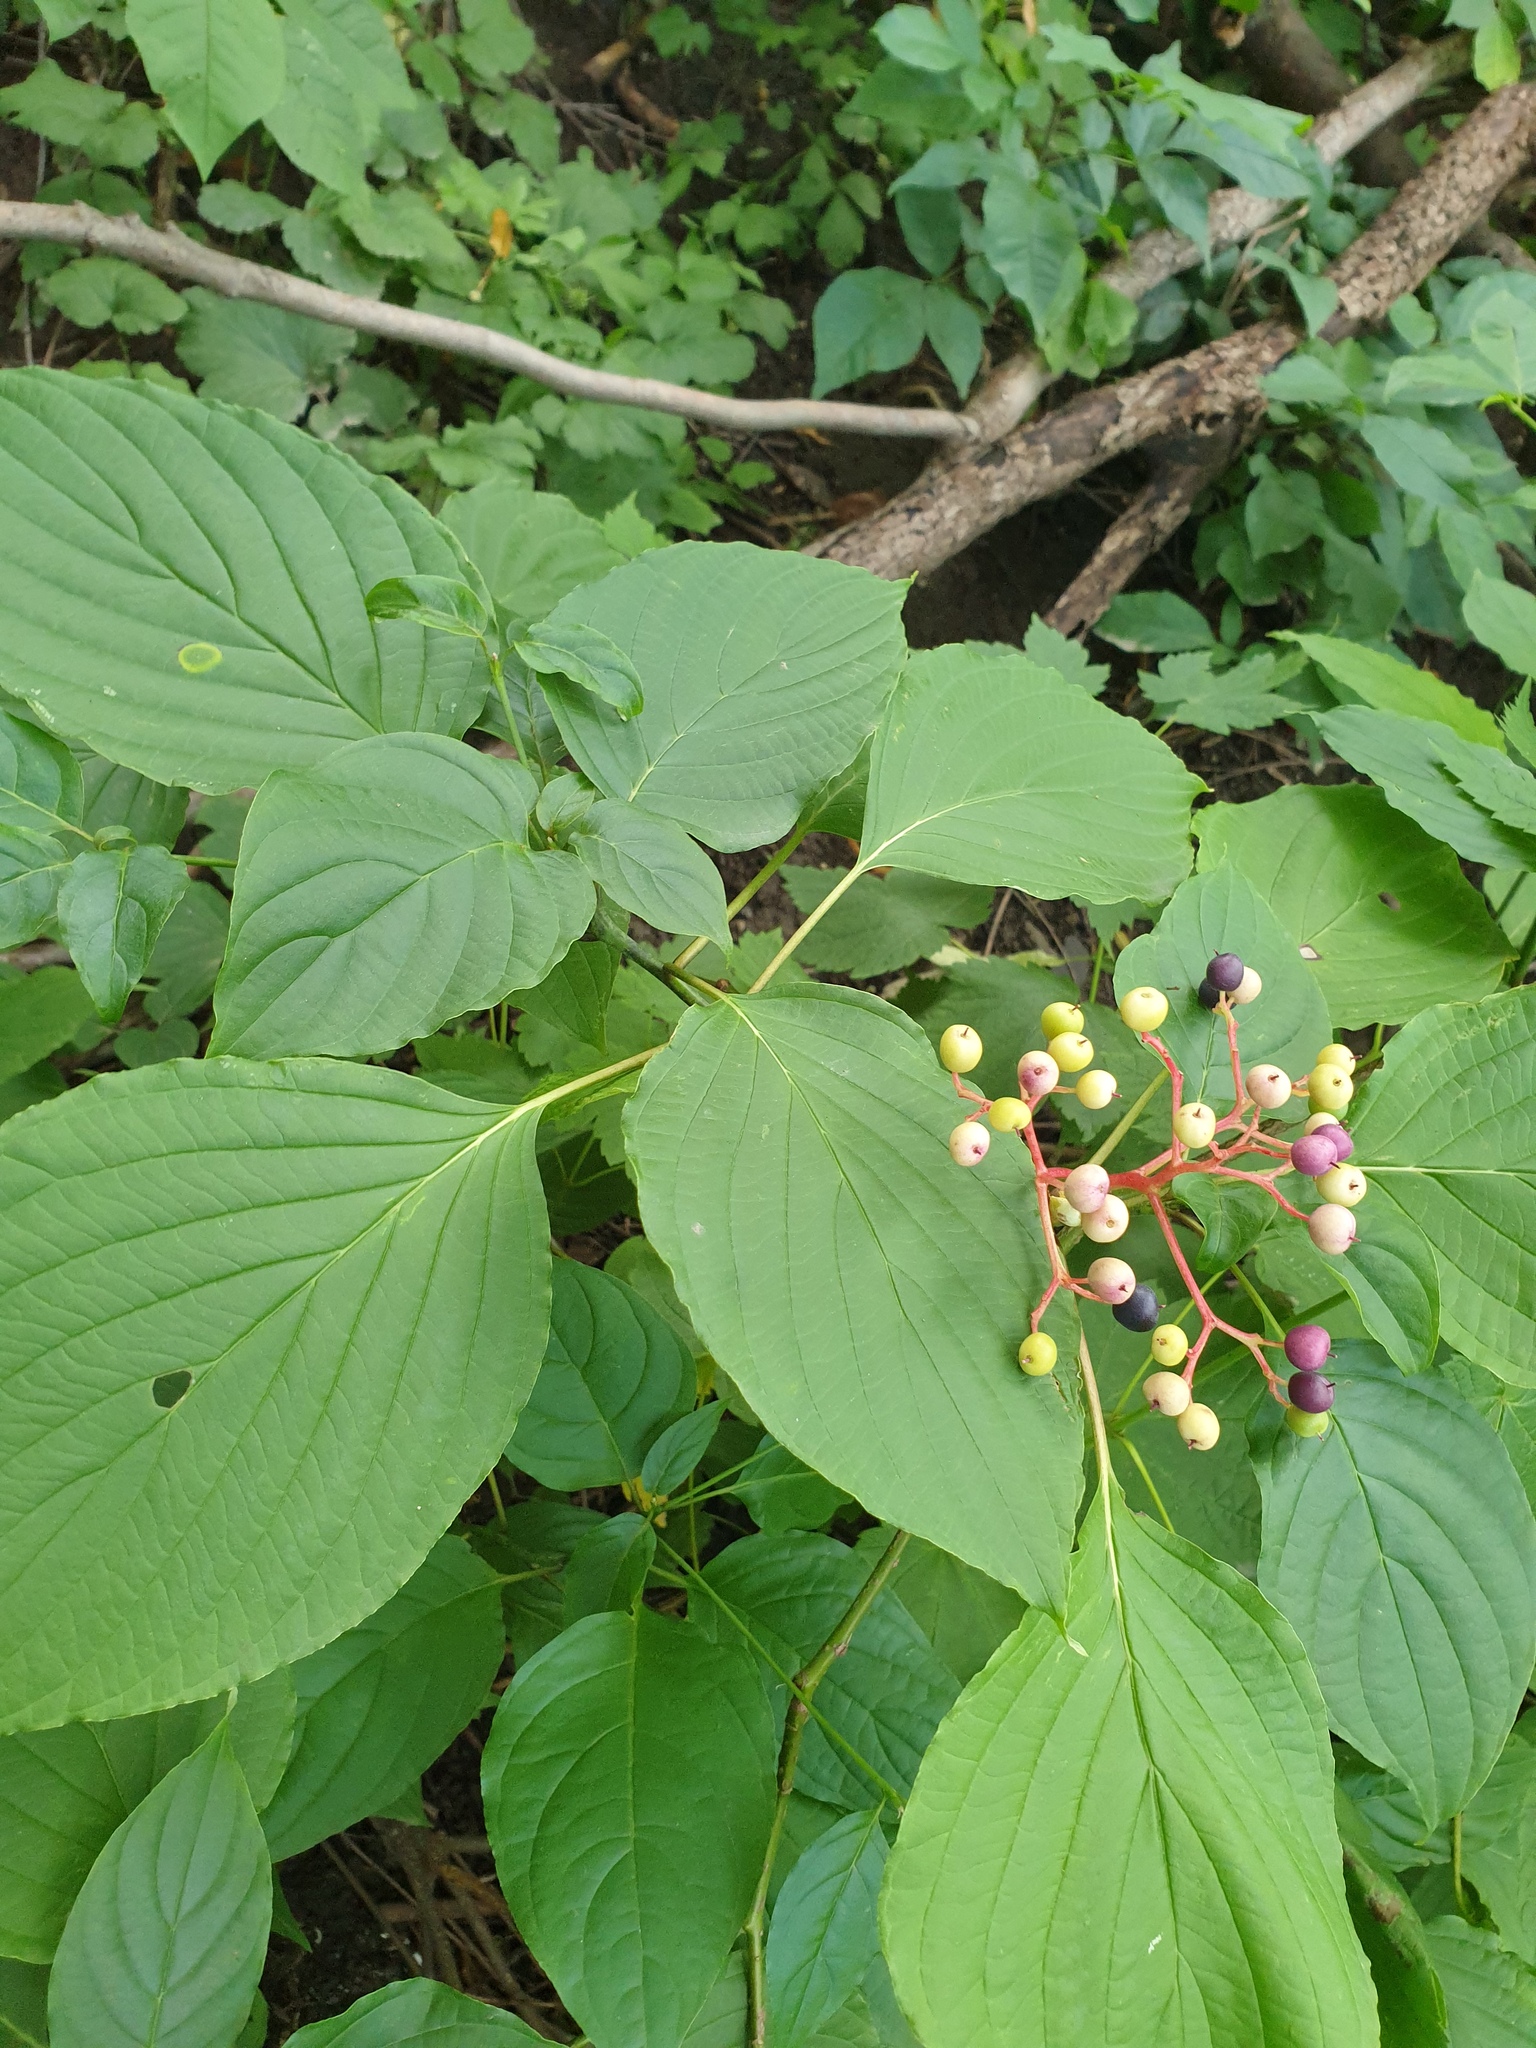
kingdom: Plantae
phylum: Tracheophyta
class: Magnoliopsida
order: Cornales
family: Cornaceae
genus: Cornus
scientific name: Cornus alternifolia
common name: Pagoda dogwood
